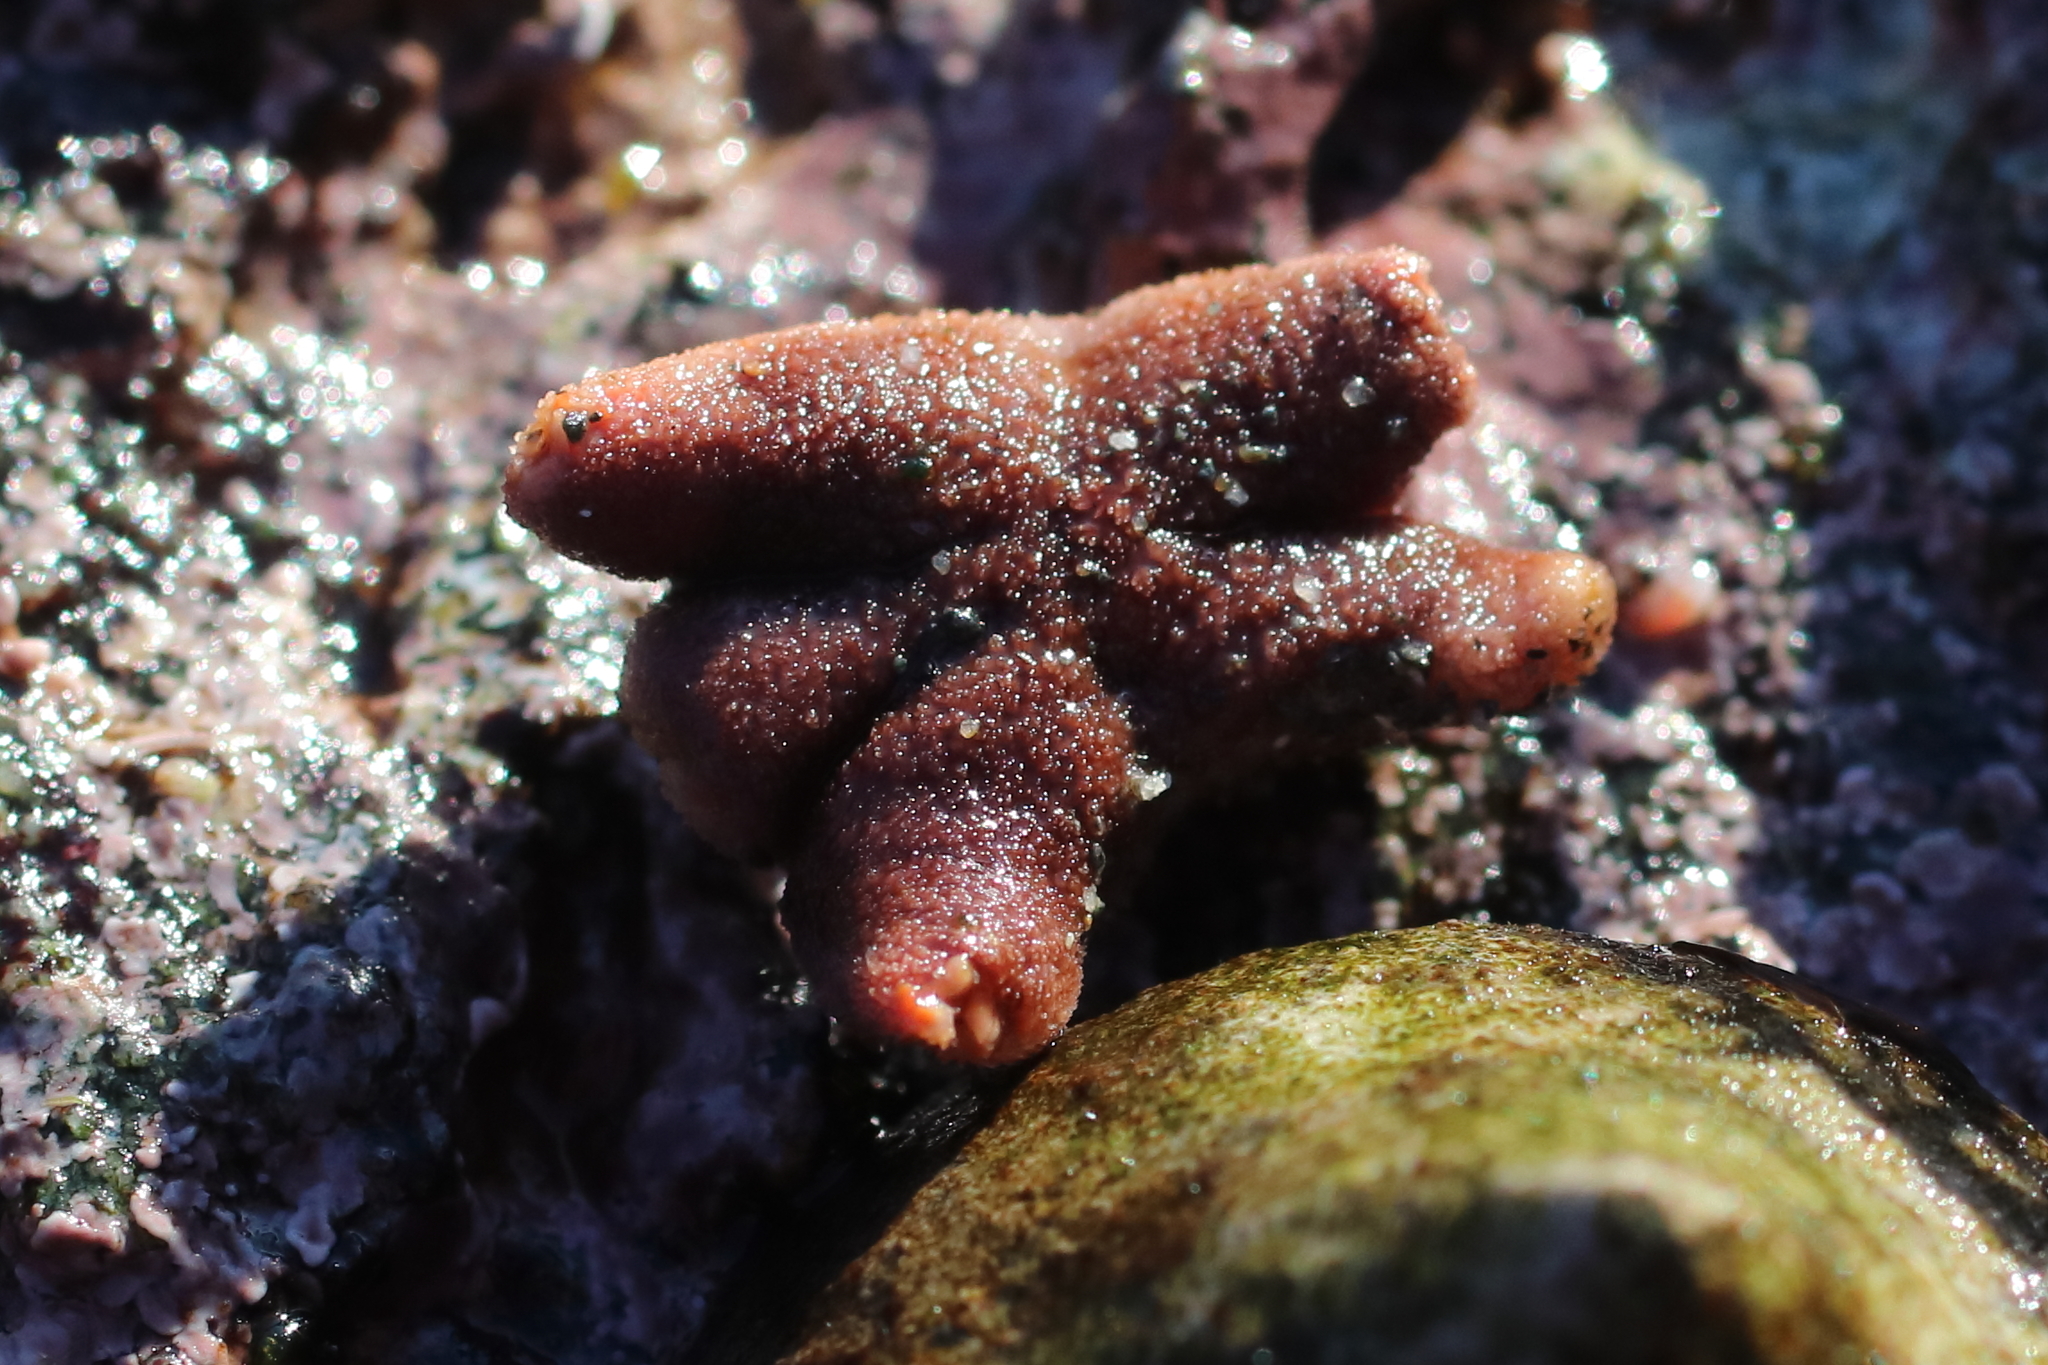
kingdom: Animalia
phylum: Echinodermata
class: Asteroidea
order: Spinulosida
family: Echinasteridae
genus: Henricia
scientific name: Henricia tumida
